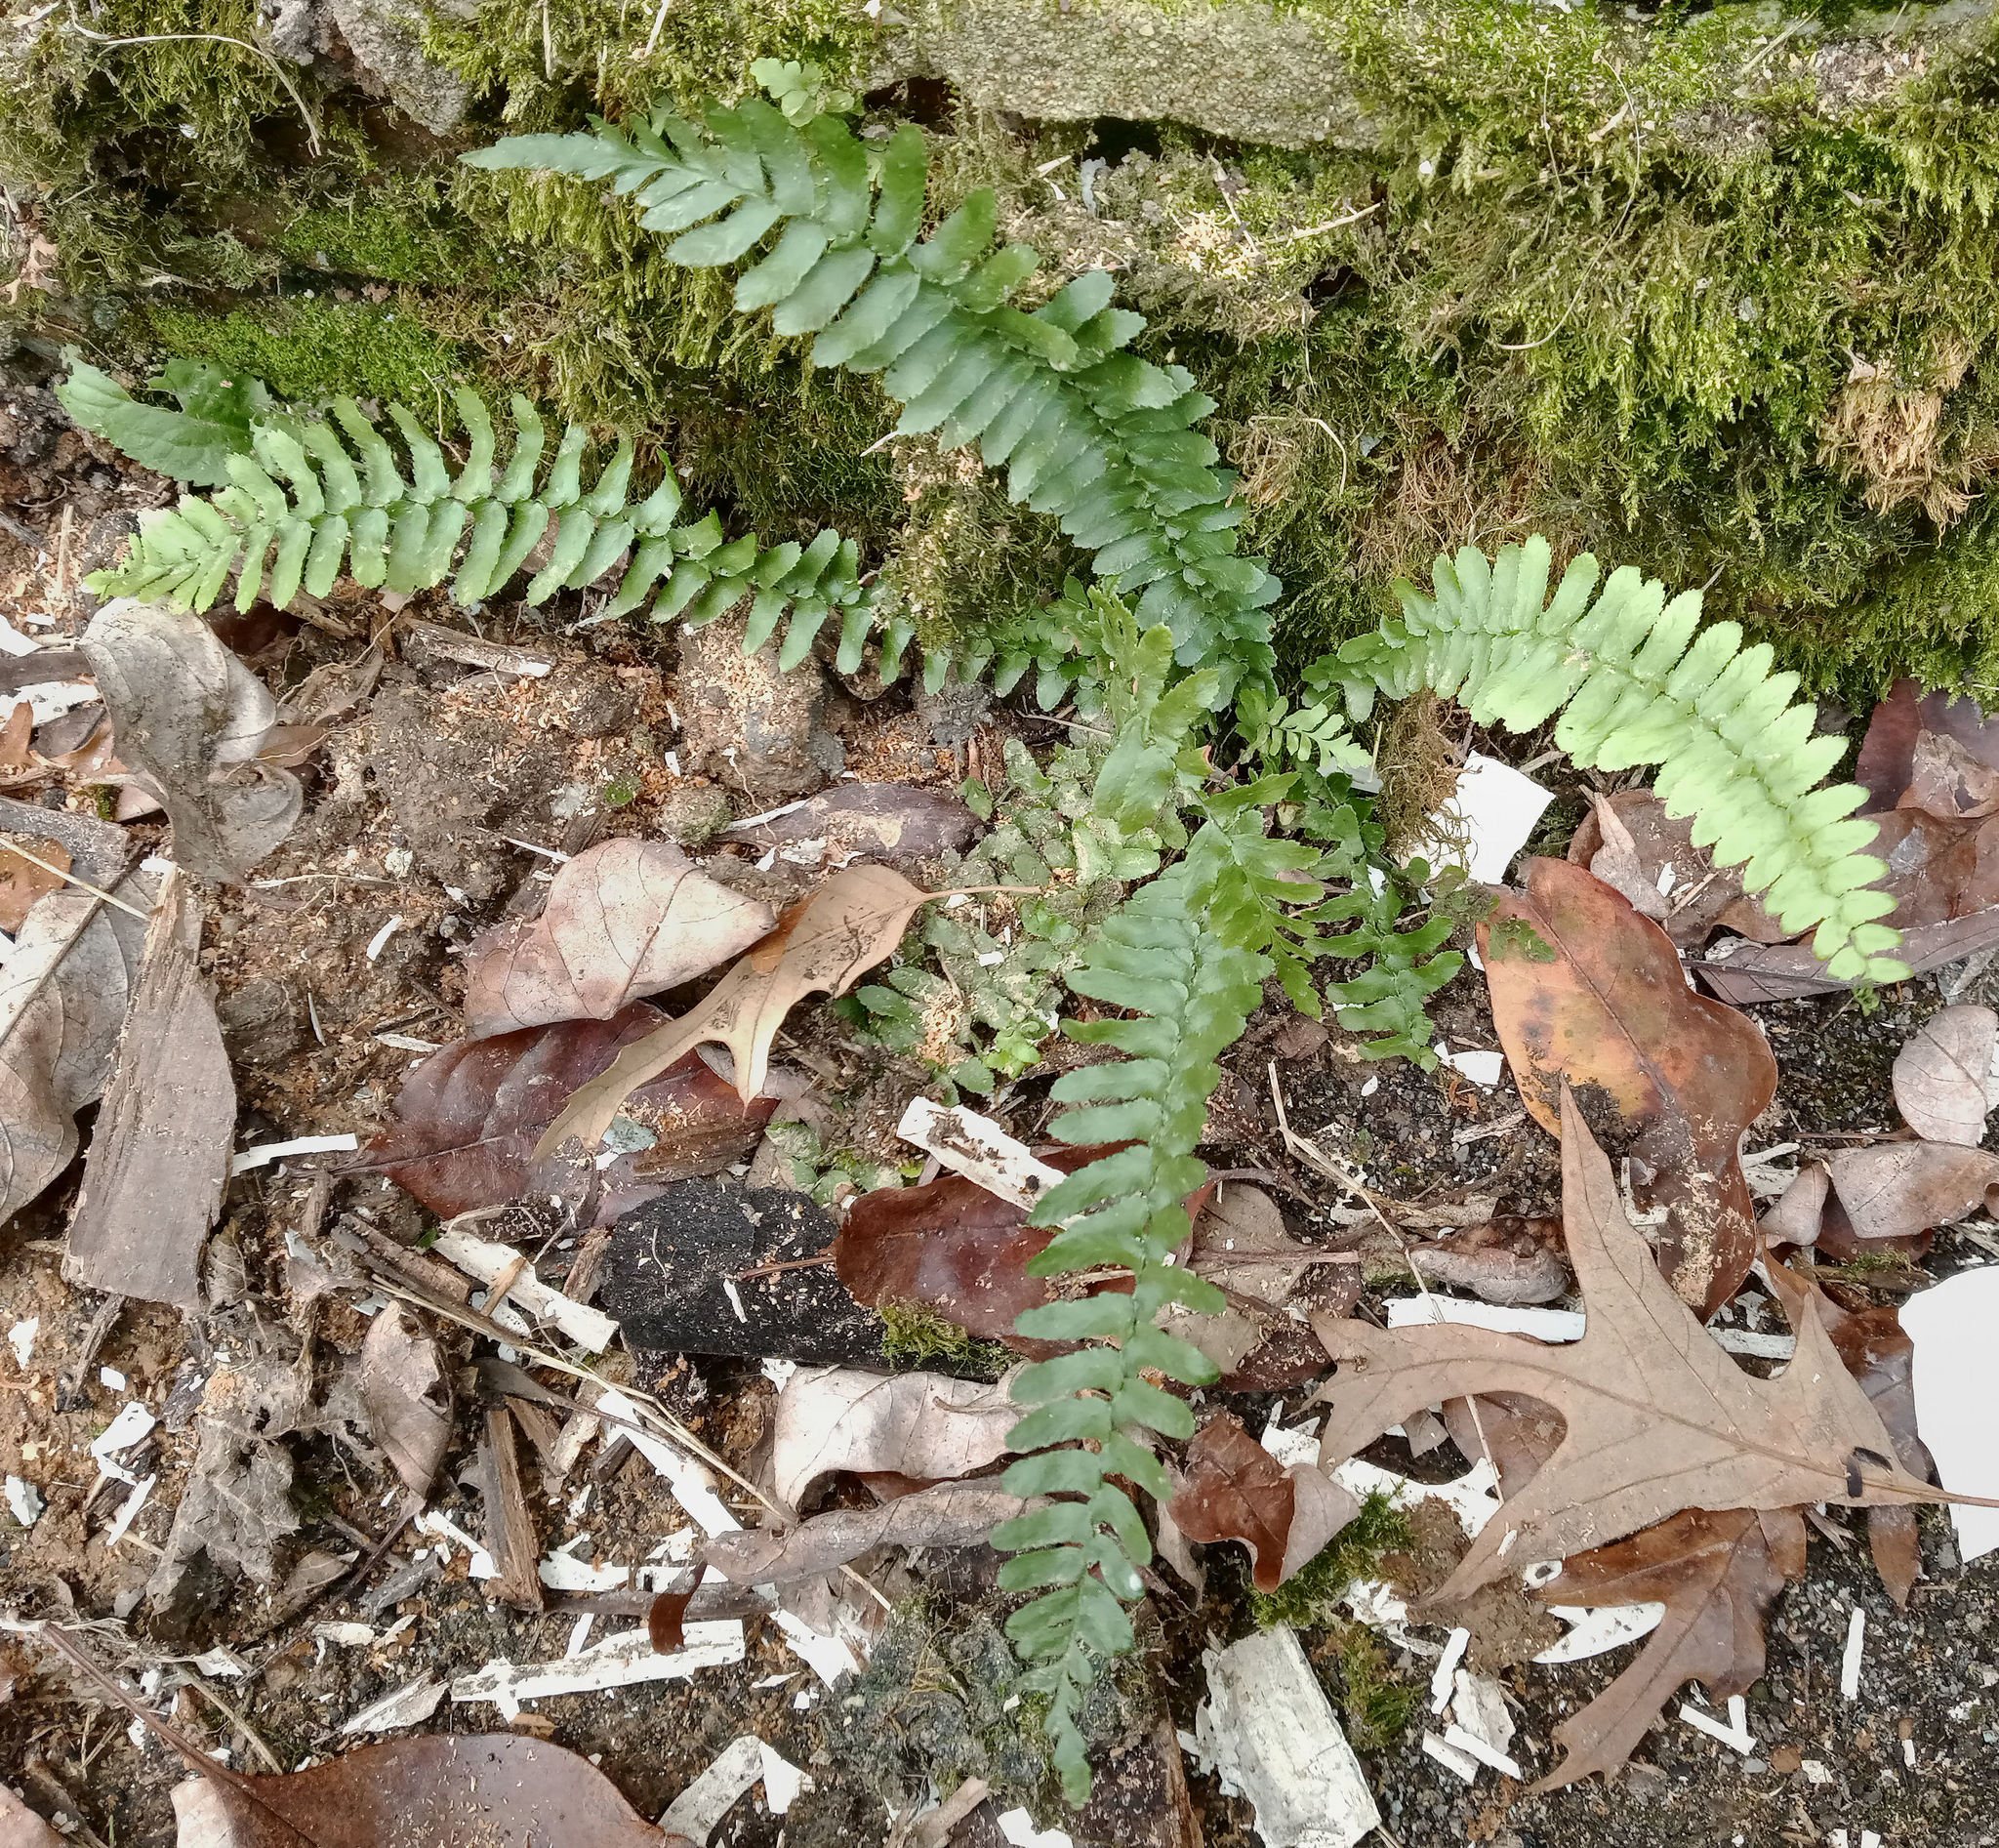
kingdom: Plantae
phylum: Tracheophyta
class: Polypodiopsida
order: Polypodiales
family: Aspleniaceae
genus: Asplenium
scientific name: Asplenium platyneuron
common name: Ebony spleenwort
